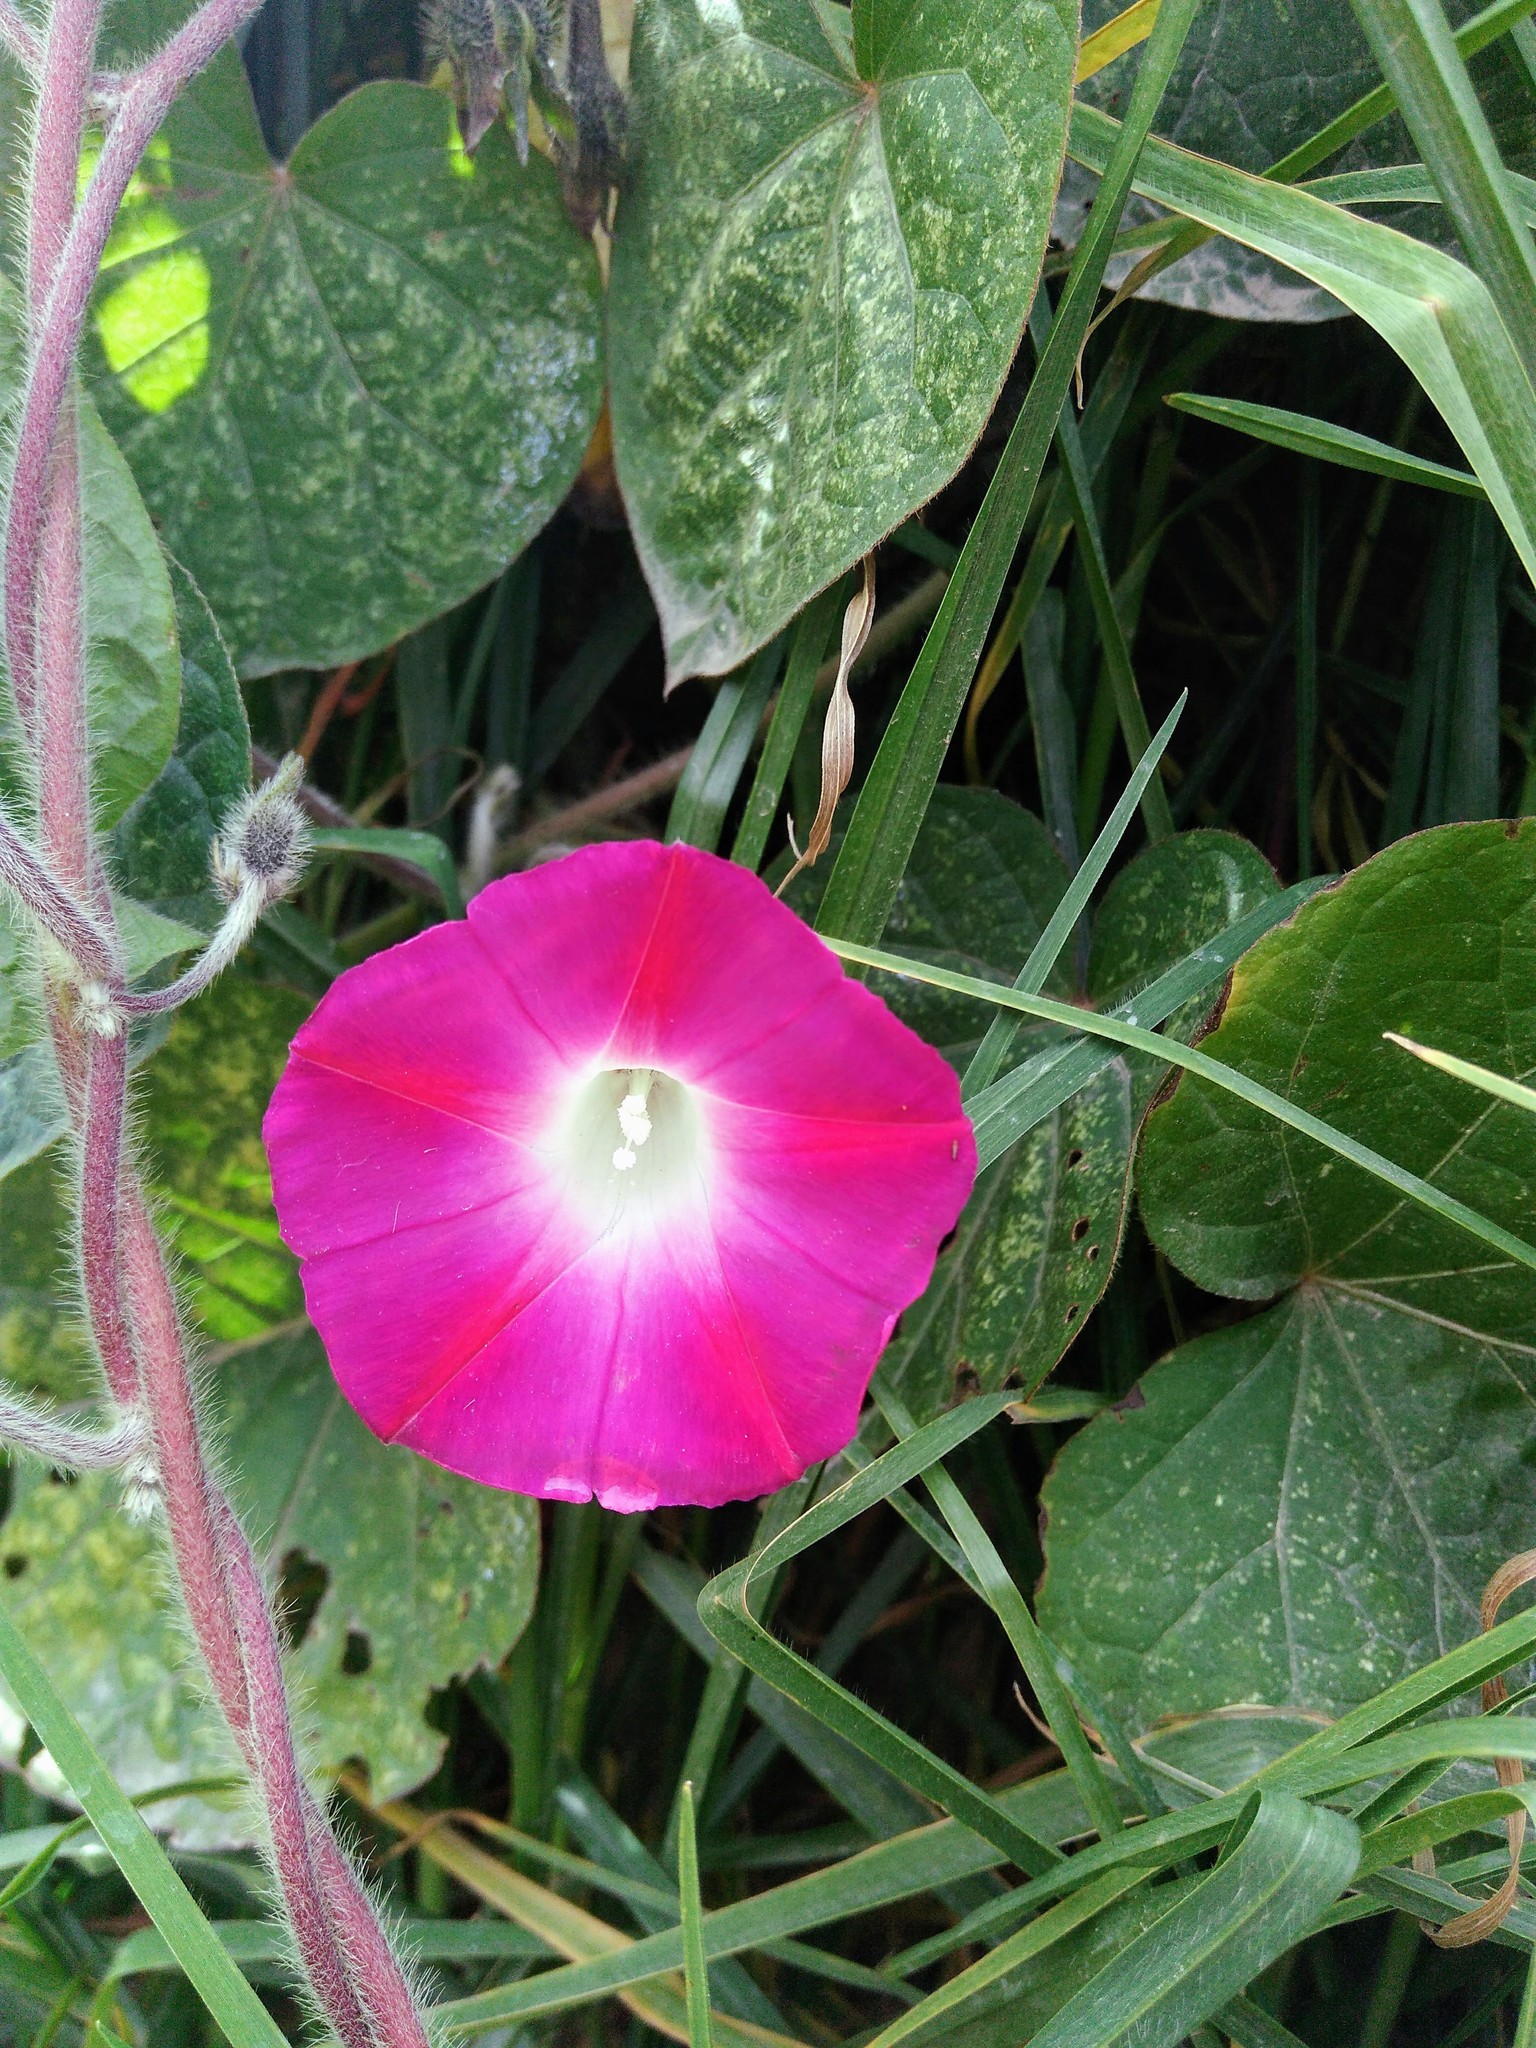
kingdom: Plantae
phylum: Tracheophyta
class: Magnoliopsida
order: Solanales
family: Convolvulaceae
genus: Ipomoea
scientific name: Ipomoea purpurea
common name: Common morning-glory
